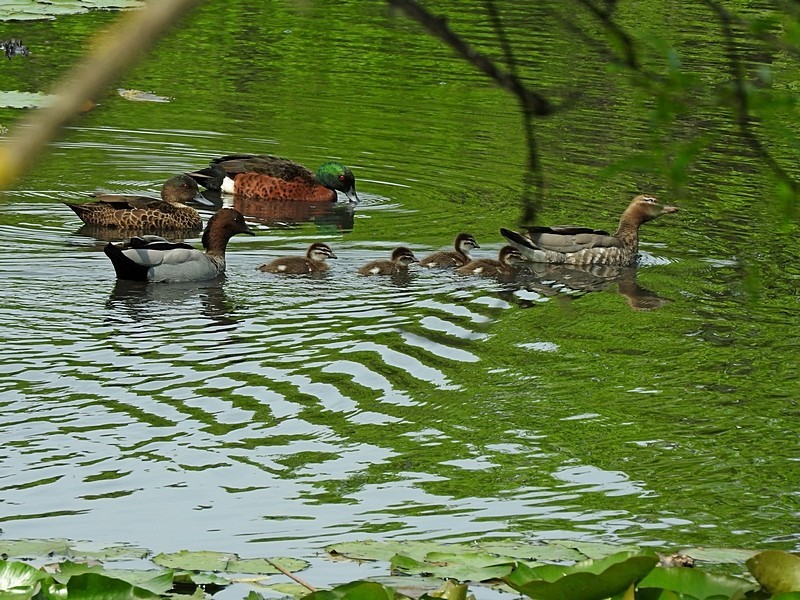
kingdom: Animalia
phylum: Chordata
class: Aves
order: Anseriformes
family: Anatidae
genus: Anas
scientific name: Anas castanea
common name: Chestnut teal
